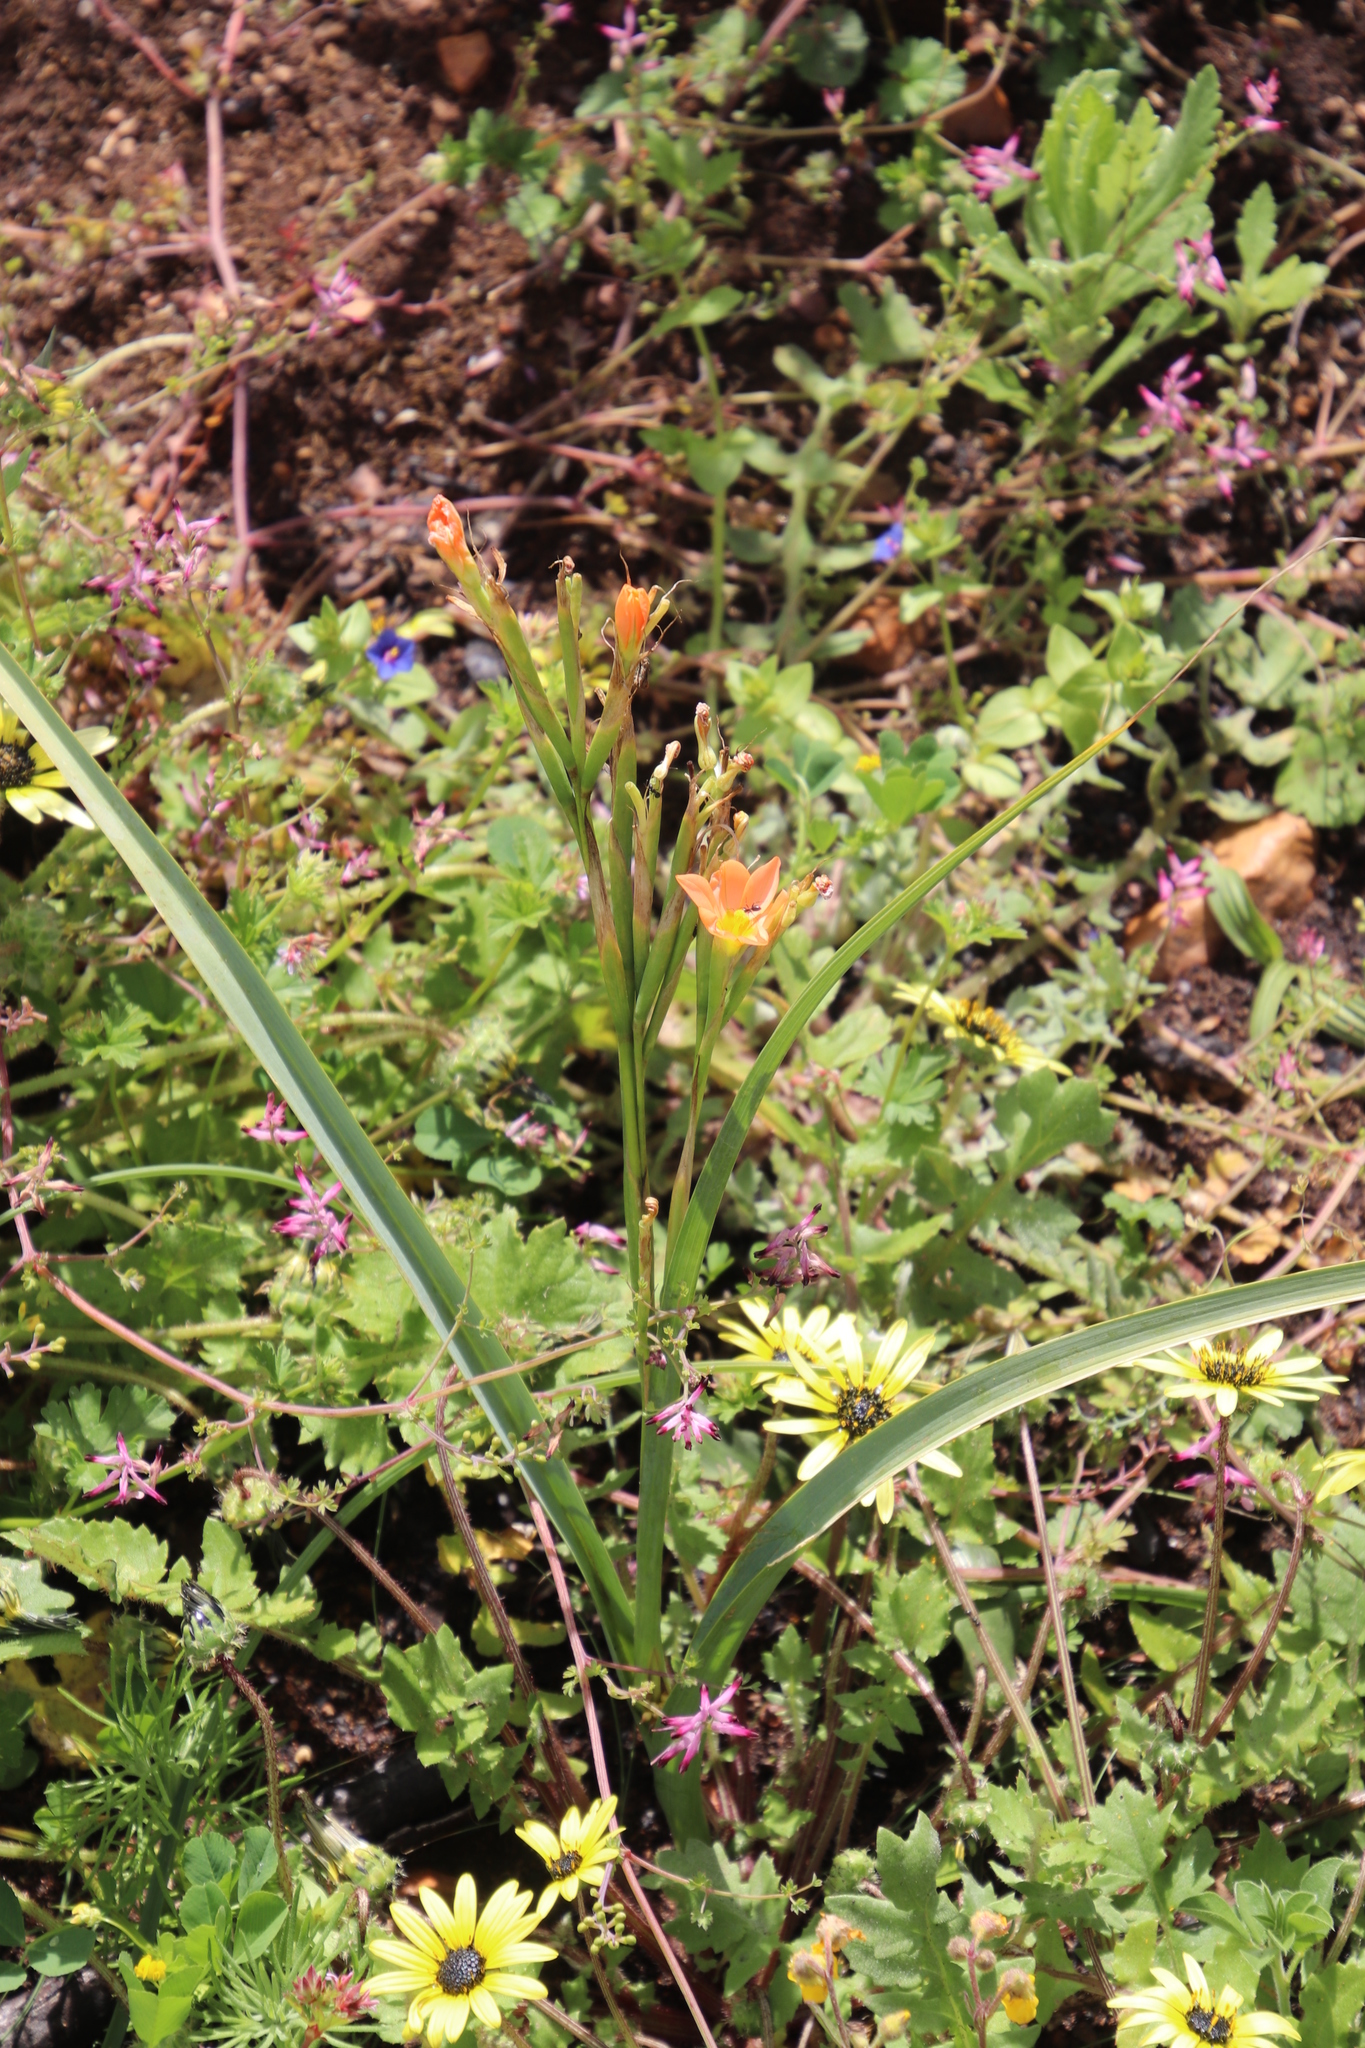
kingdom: Plantae
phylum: Tracheophyta
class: Liliopsida
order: Asparagales
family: Iridaceae
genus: Moraea
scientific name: Moraea miniata
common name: Two-leaf cape-tulip
